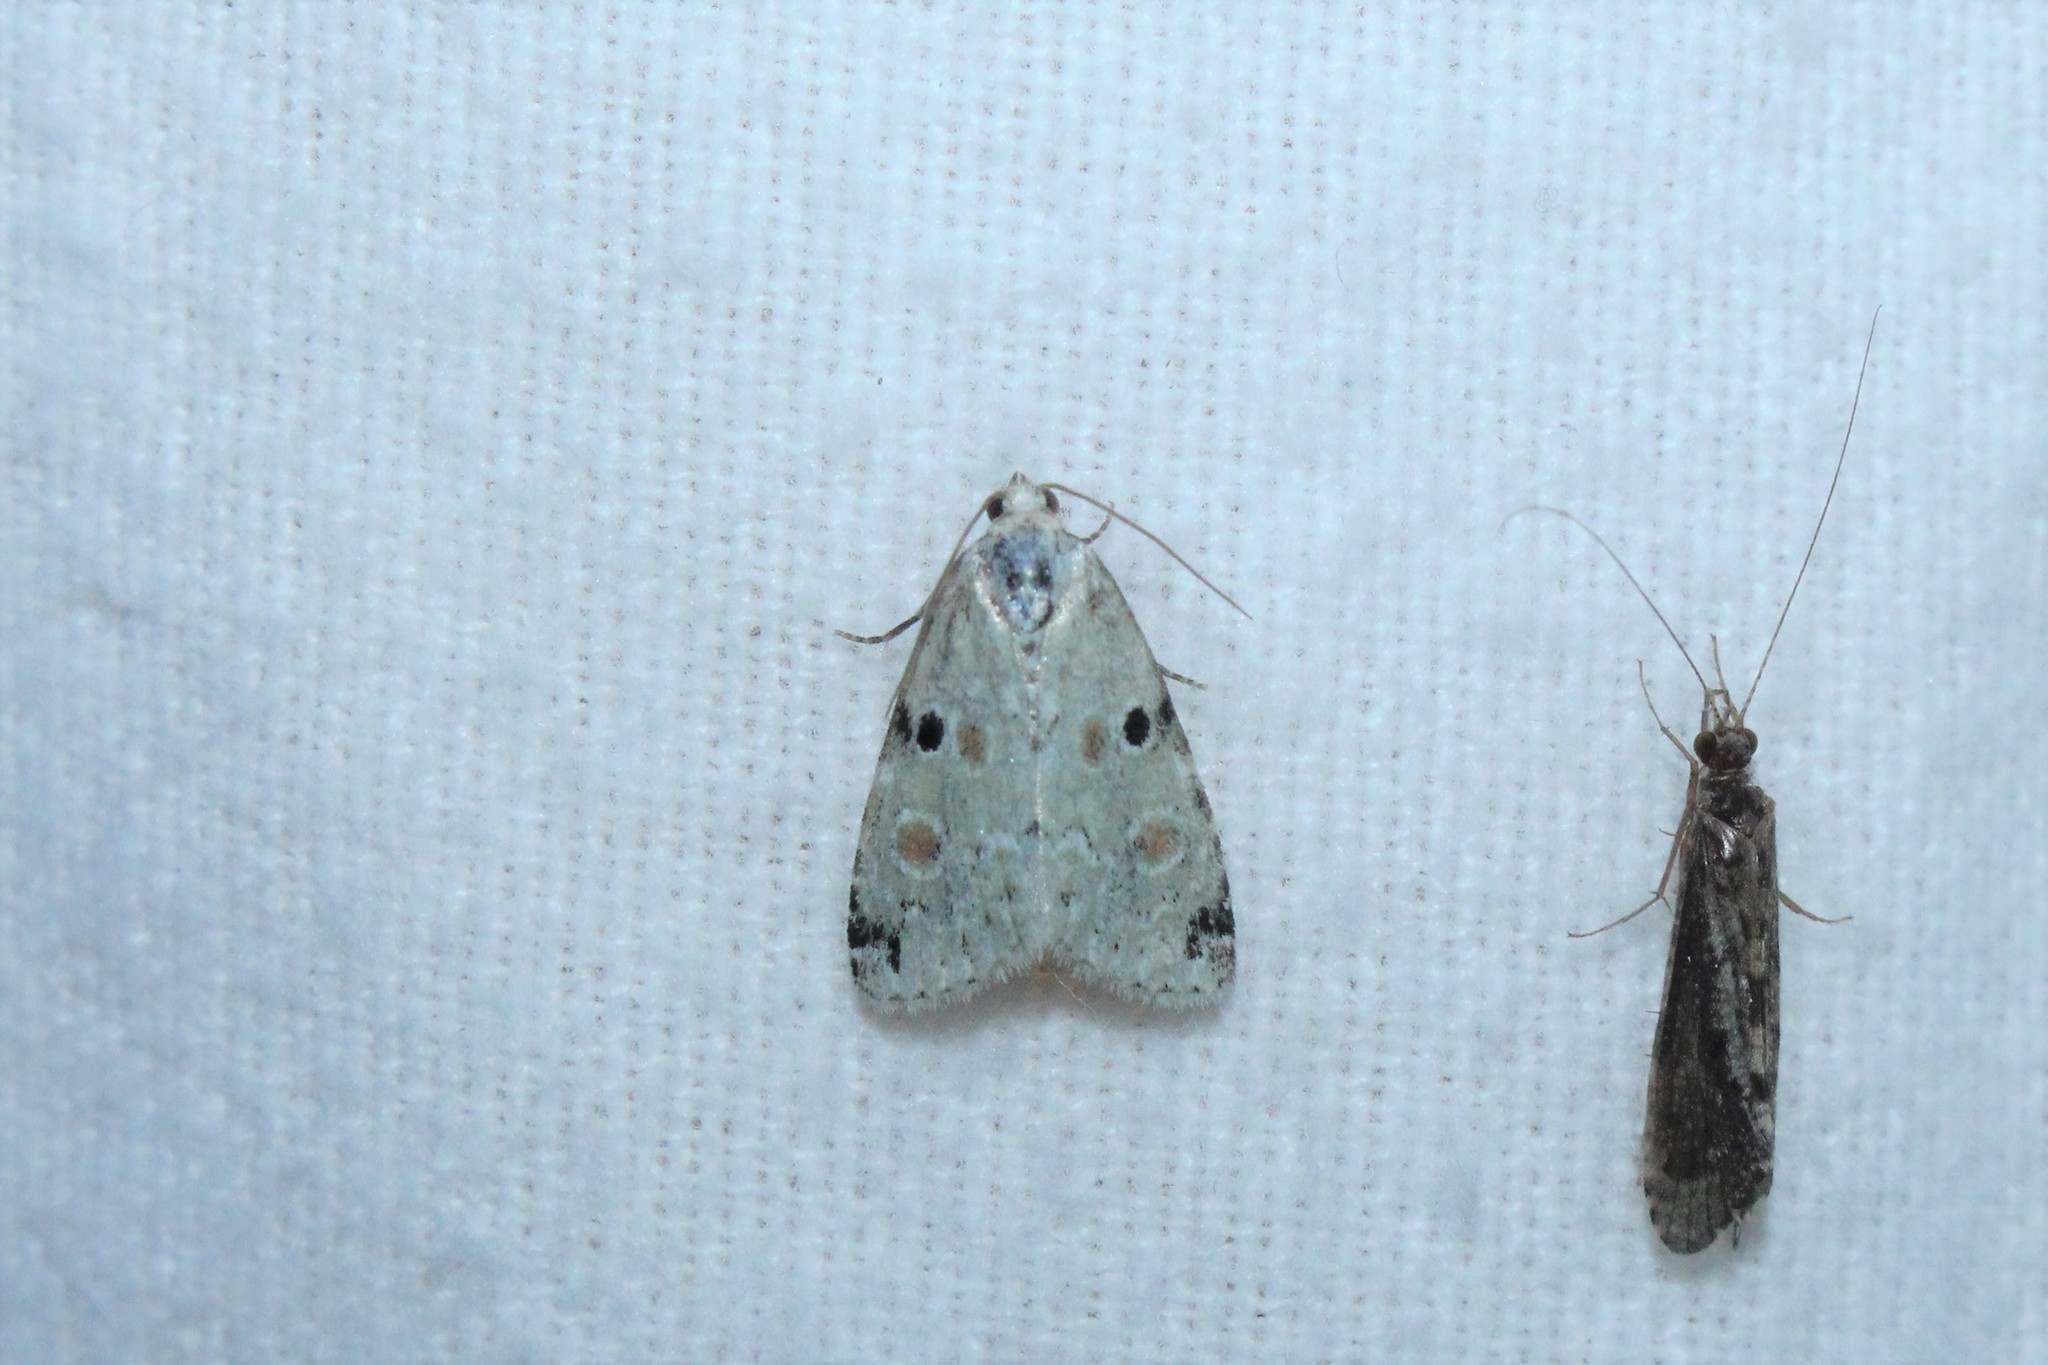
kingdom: Animalia
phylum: Arthropoda
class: Insecta
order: Lepidoptera
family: Noctuidae
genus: Maliattha
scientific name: Maliattha concinnimacula
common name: Red-spotted glyph
